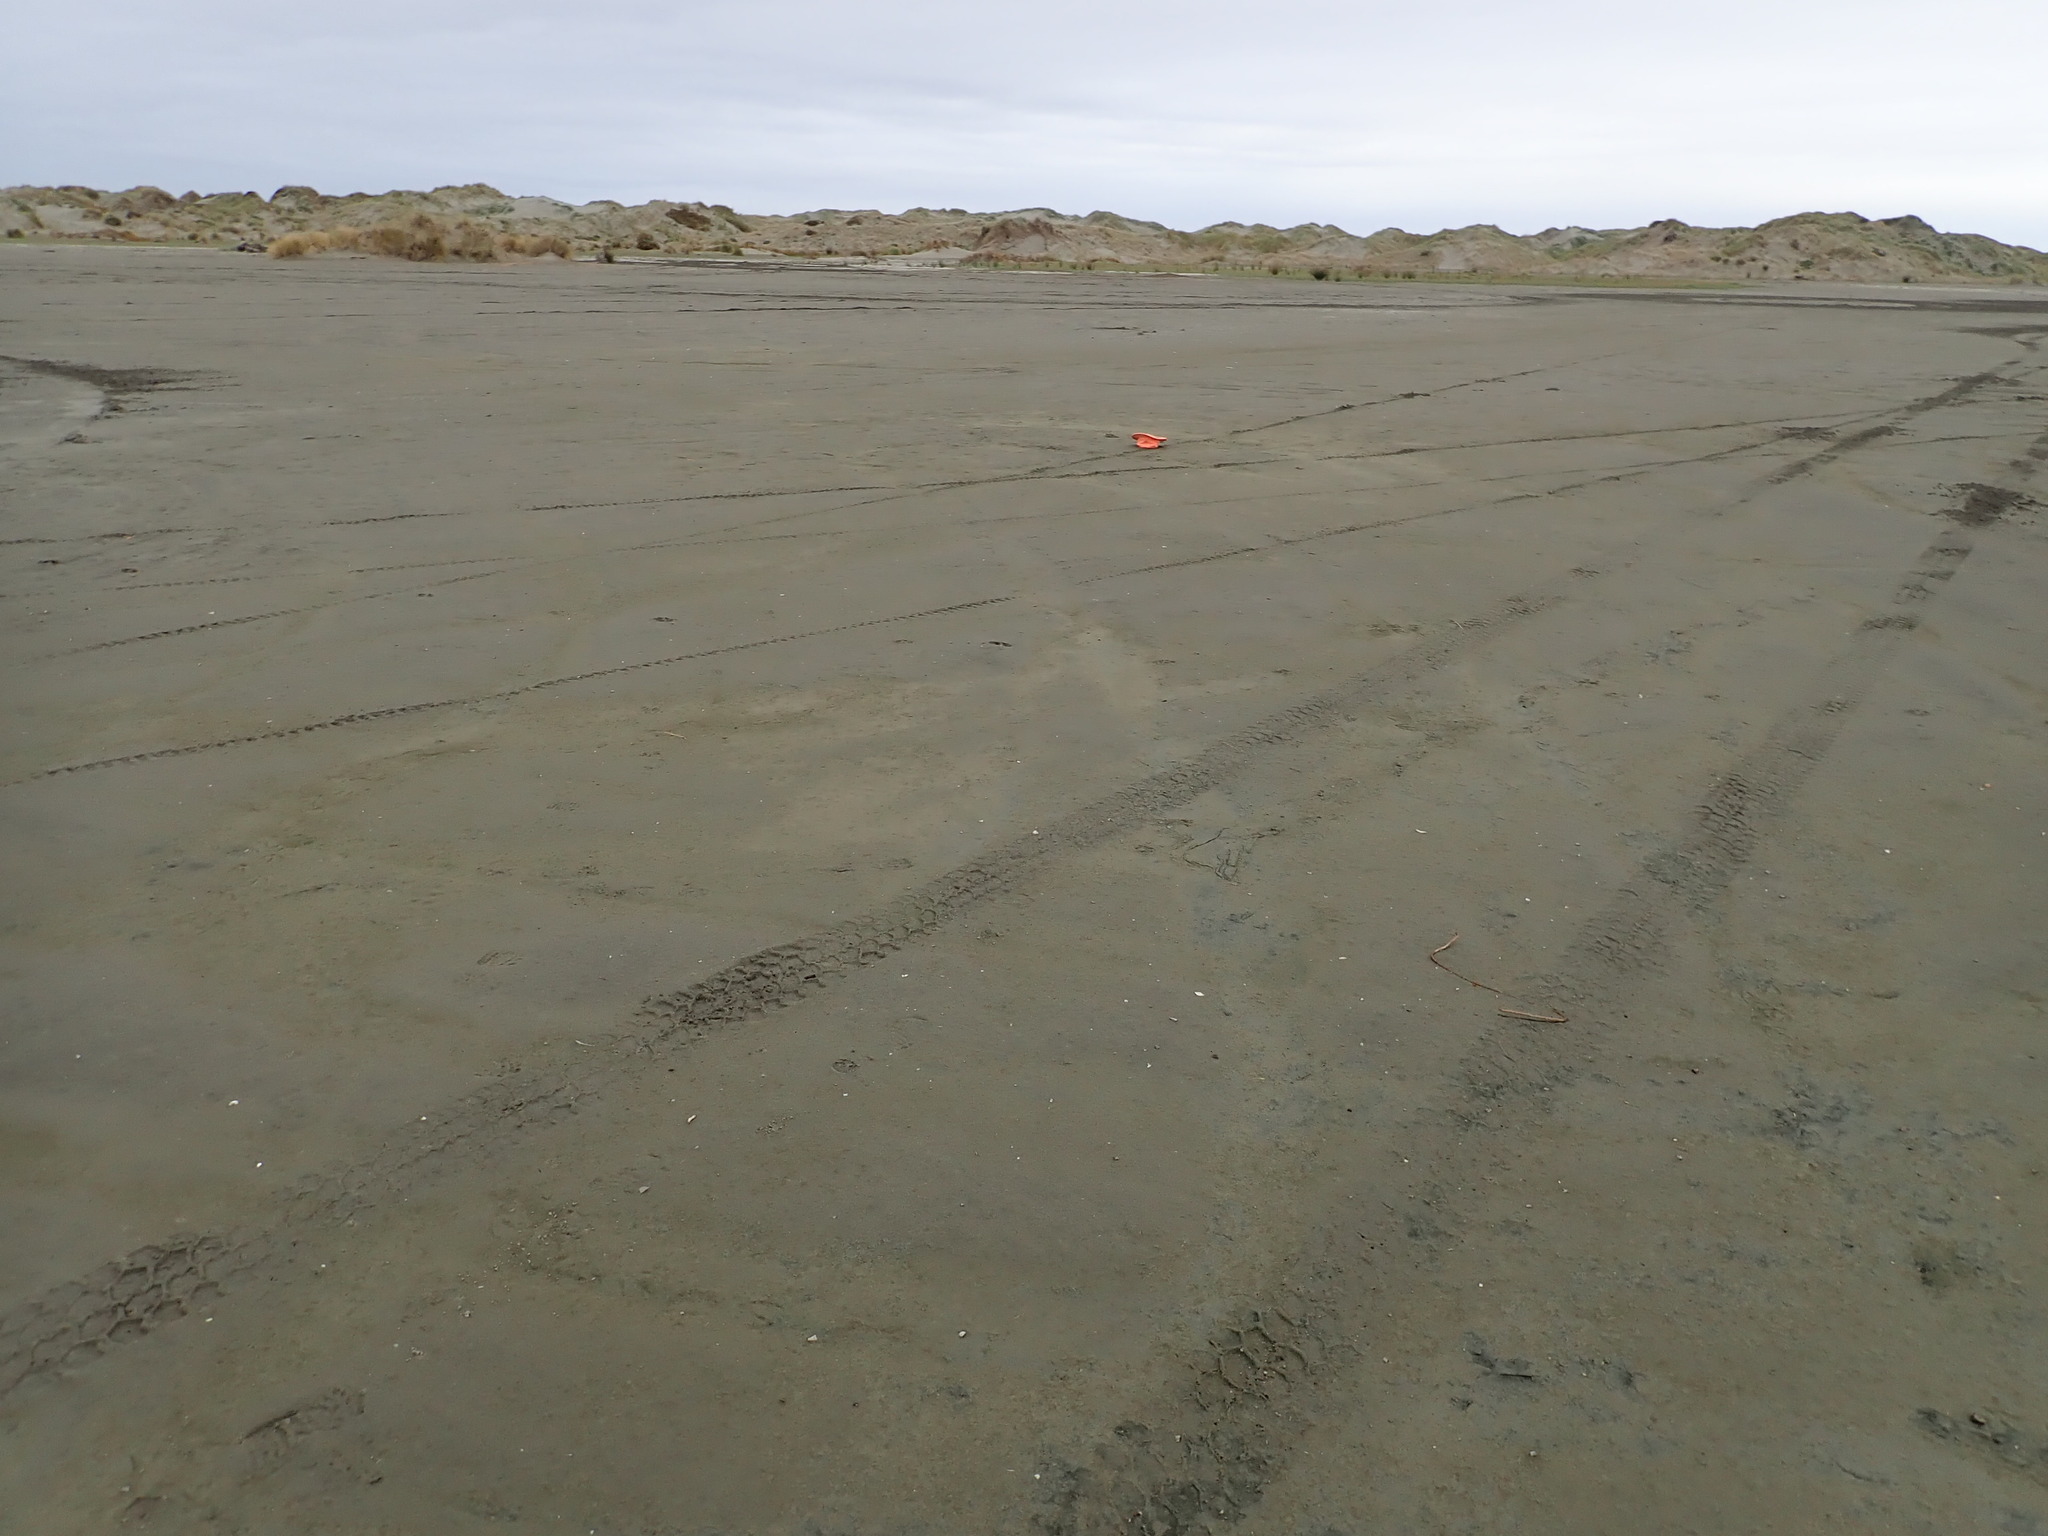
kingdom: Plantae
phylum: Tracheophyta
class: Magnoliopsida
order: Ericales
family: Primulaceae
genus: Samolus
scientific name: Samolus repens
